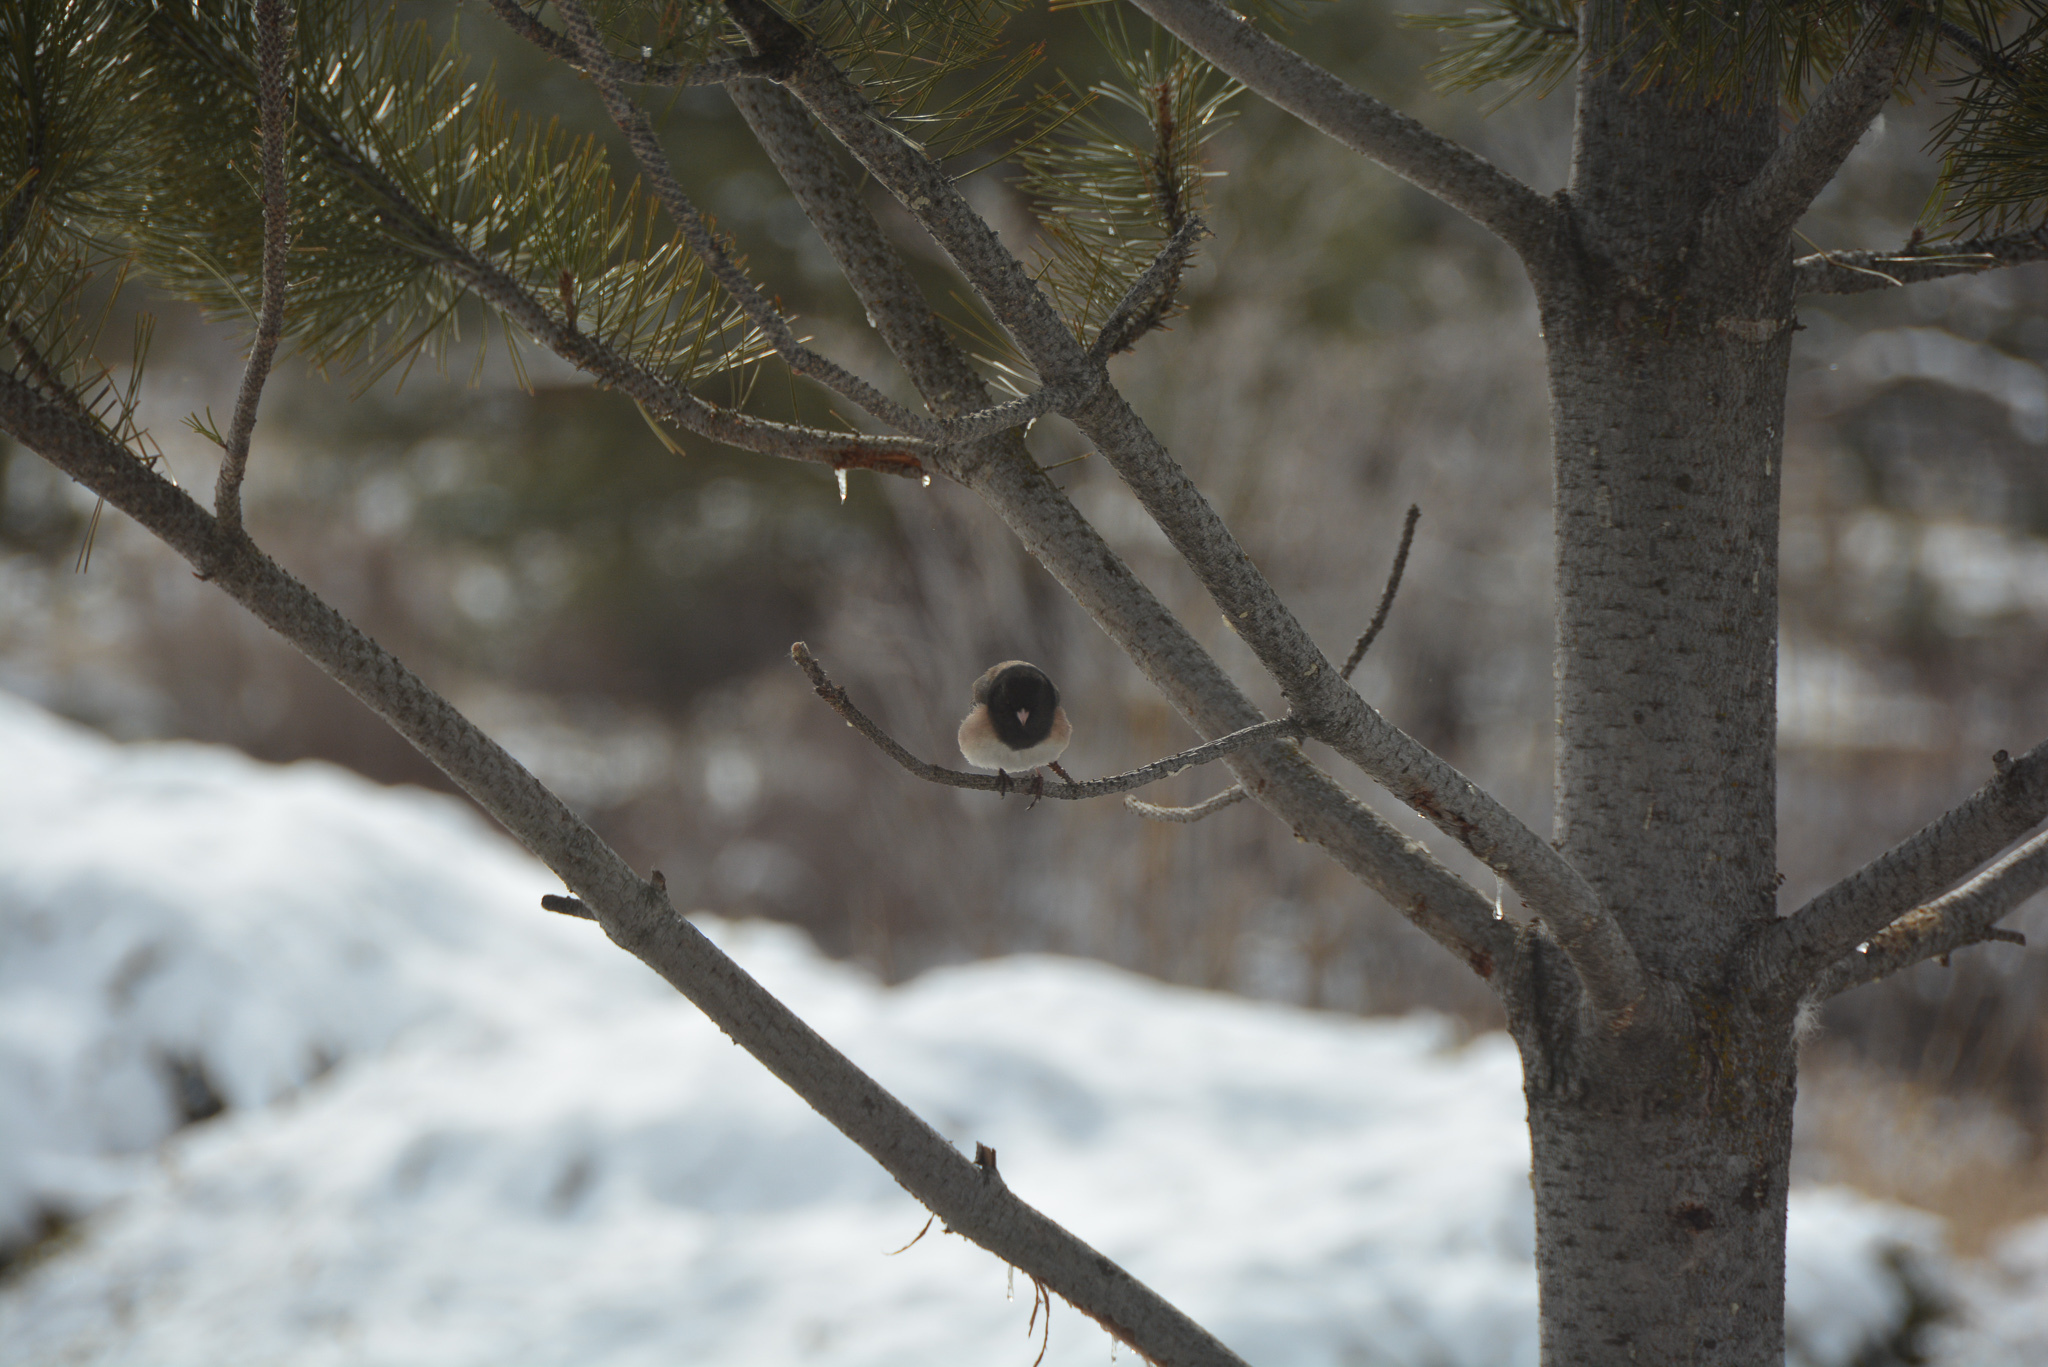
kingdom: Animalia
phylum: Chordata
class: Aves
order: Passeriformes
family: Passerellidae
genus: Junco
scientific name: Junco hyemalis
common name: Dark-eyed junco
